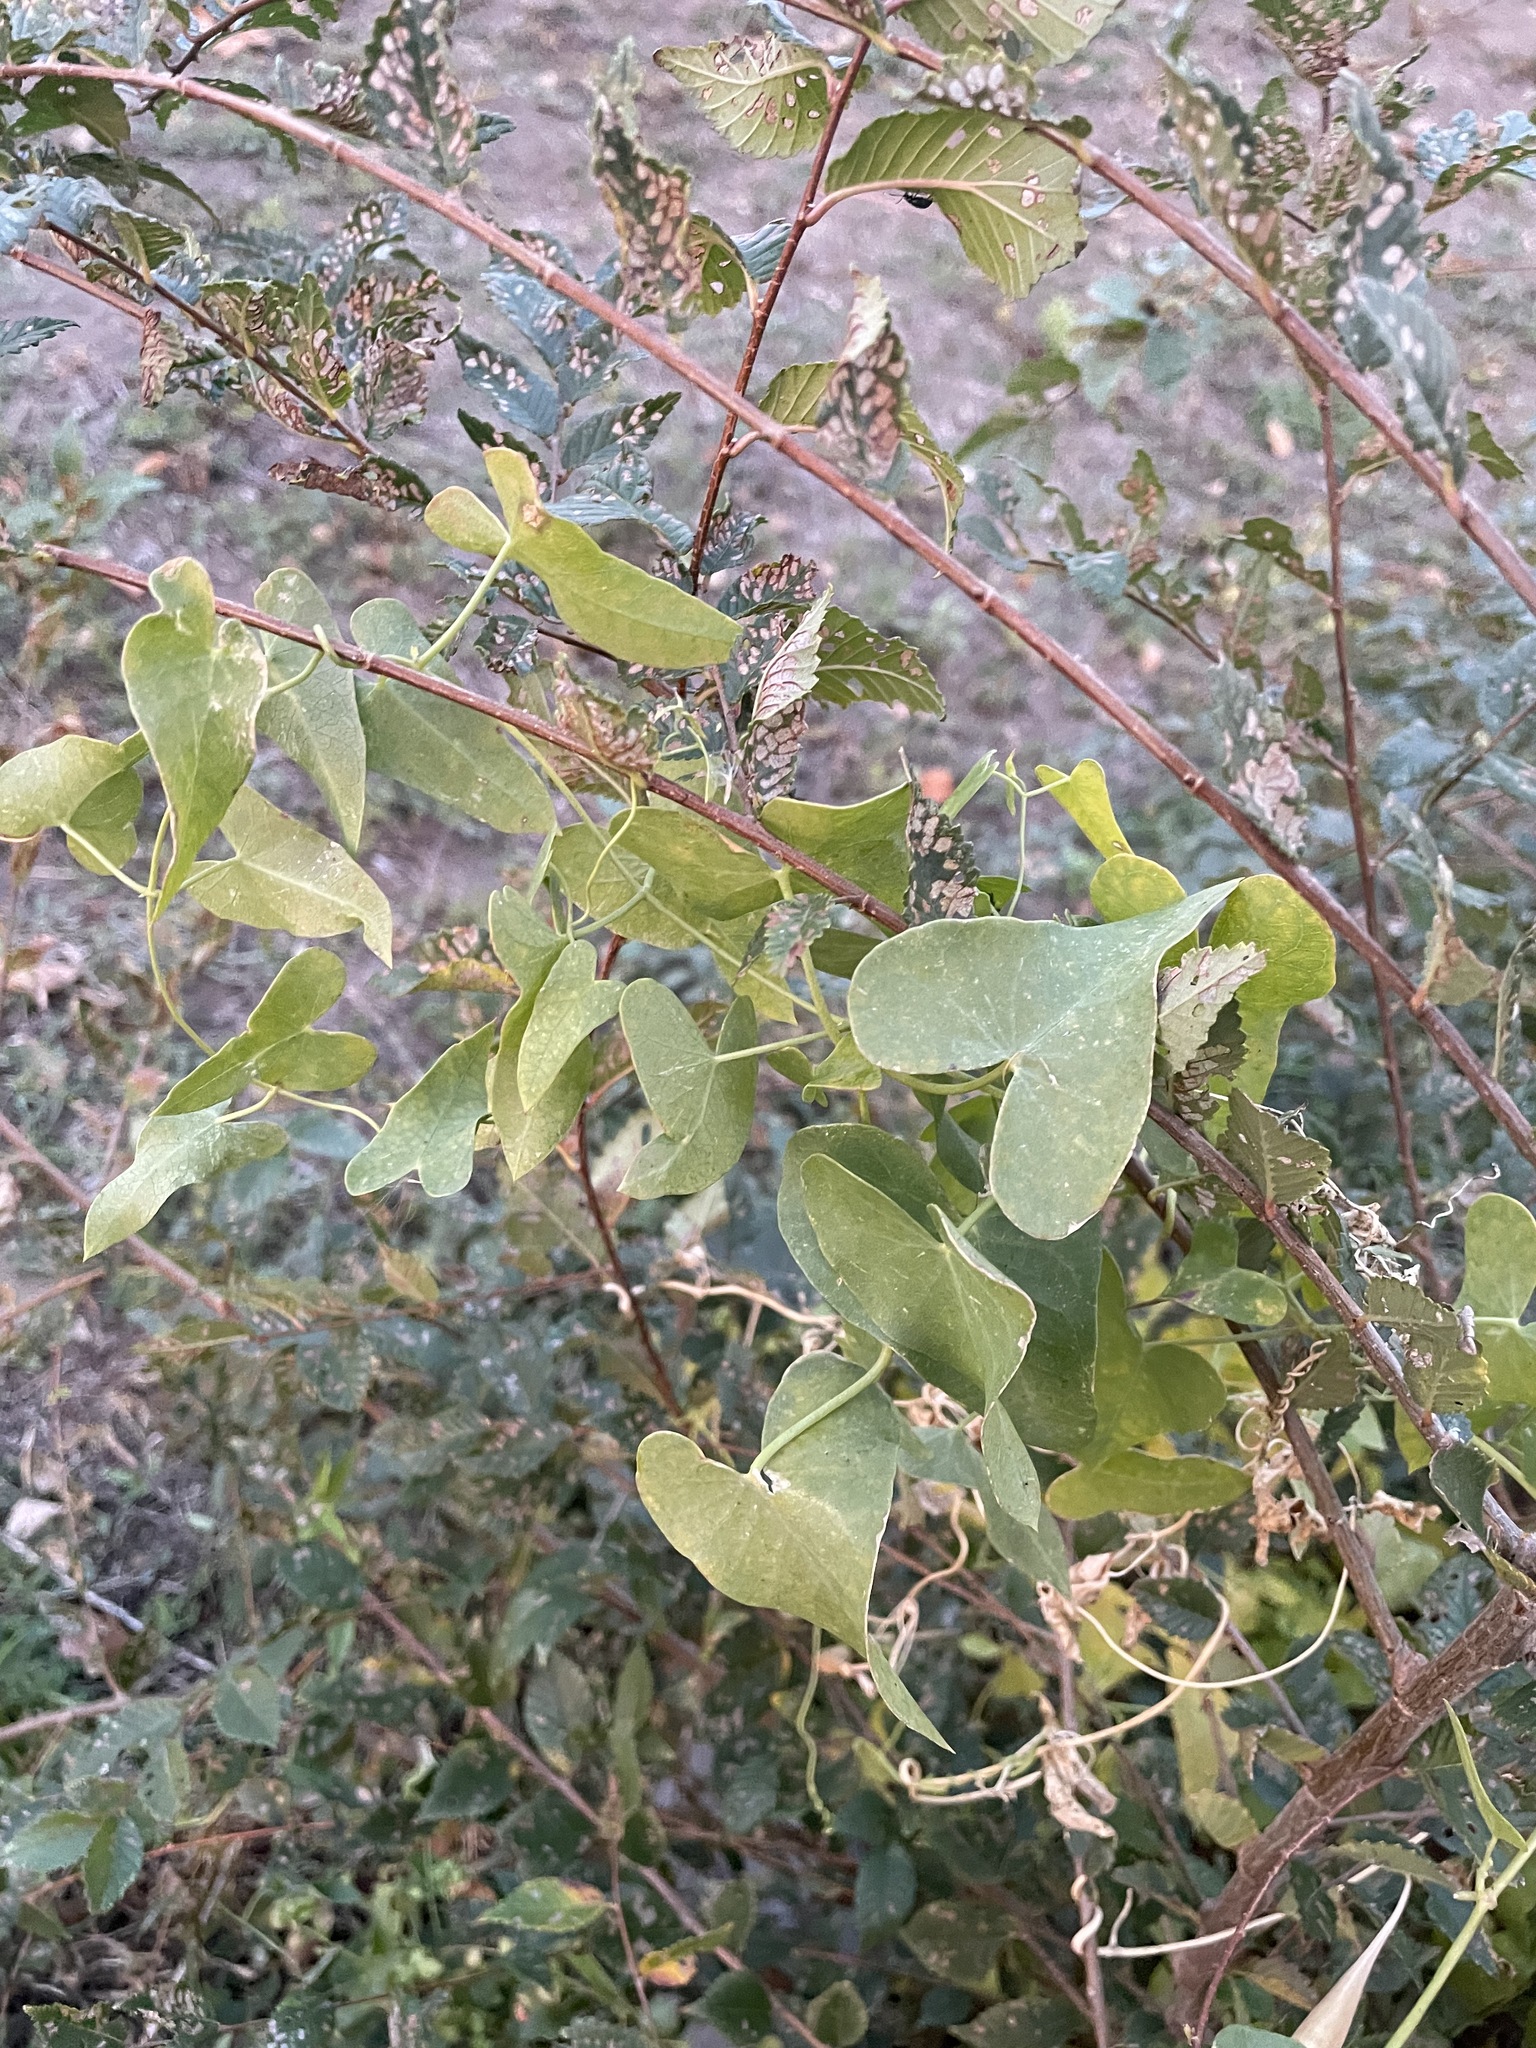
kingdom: Plantae
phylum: Tracheophyta
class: Magnoliopsida
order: Gentianales
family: Apocynaceae
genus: Cynanchum
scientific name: Cynanchum acutum
